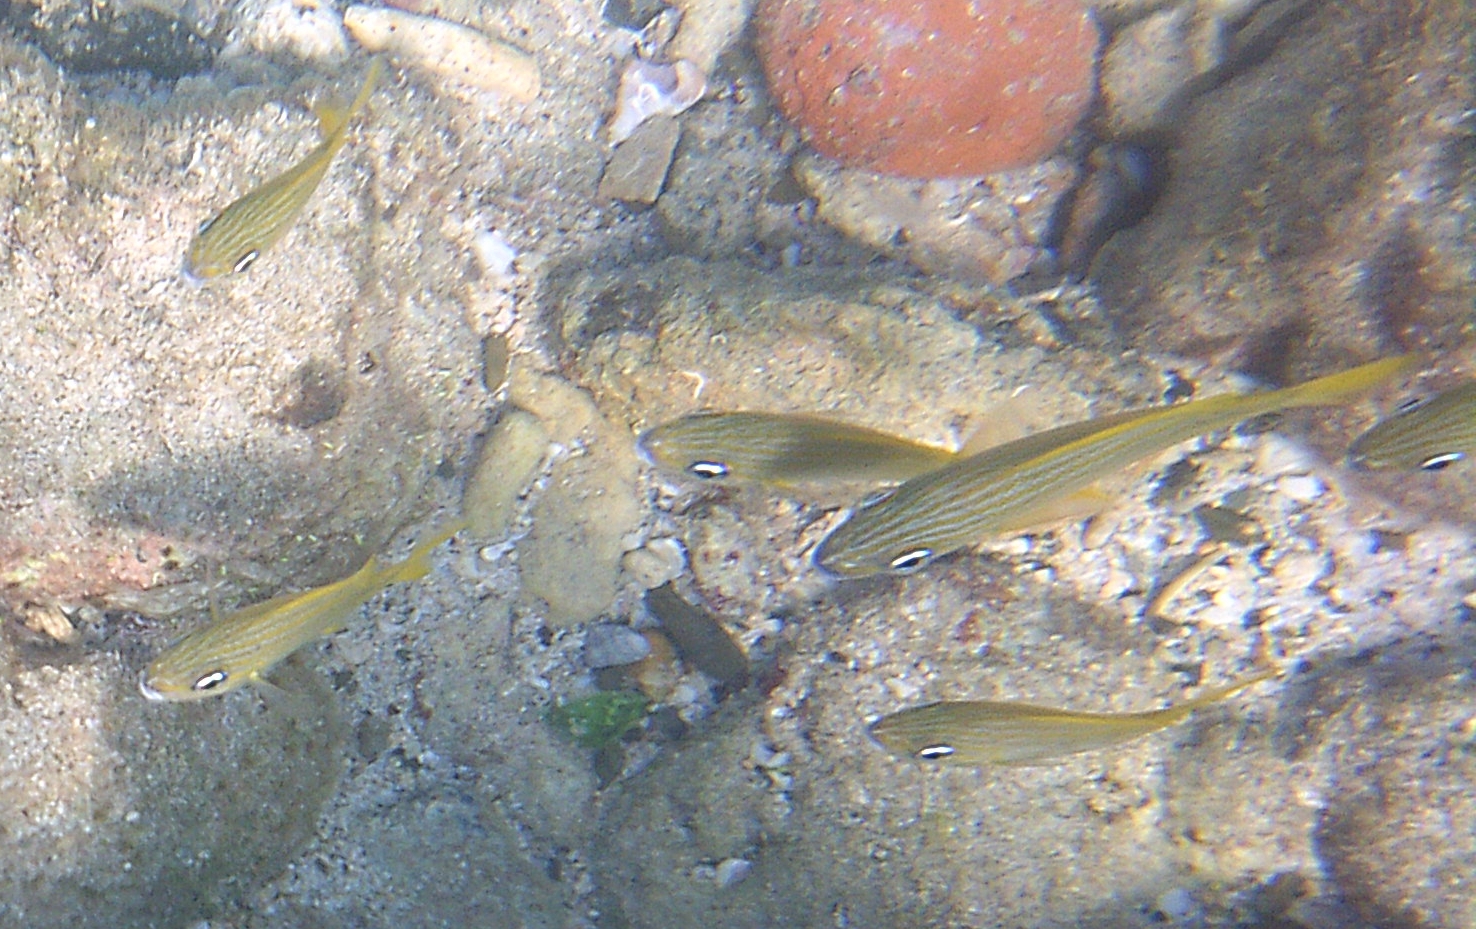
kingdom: Animalia
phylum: Chordata
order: Perciformes
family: Haemulidae
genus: Haemulon
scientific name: Haemulon flavolineatum
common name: French grunt
